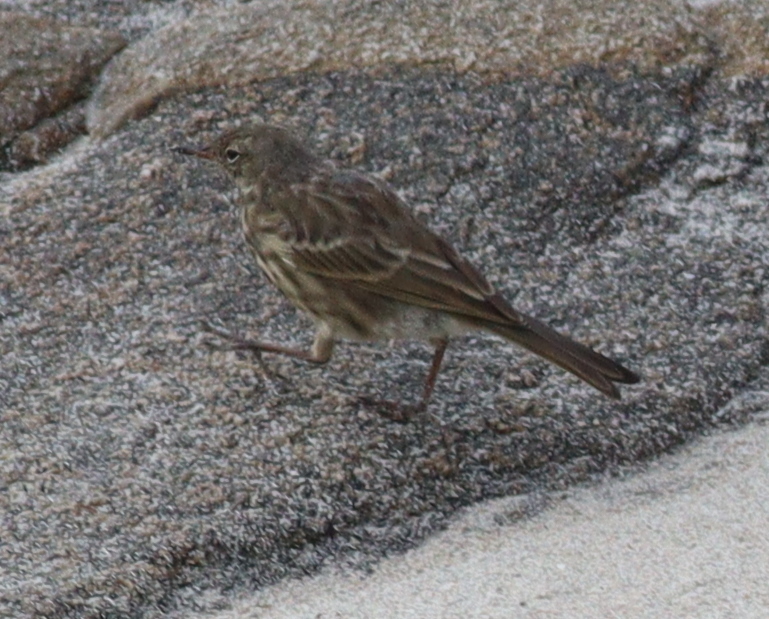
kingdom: Animalia
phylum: Chordata
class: Aves
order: Passeriformes
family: Motacillidae
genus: Anthus
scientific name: Anthus petrosus
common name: Eurasian rock pipit
